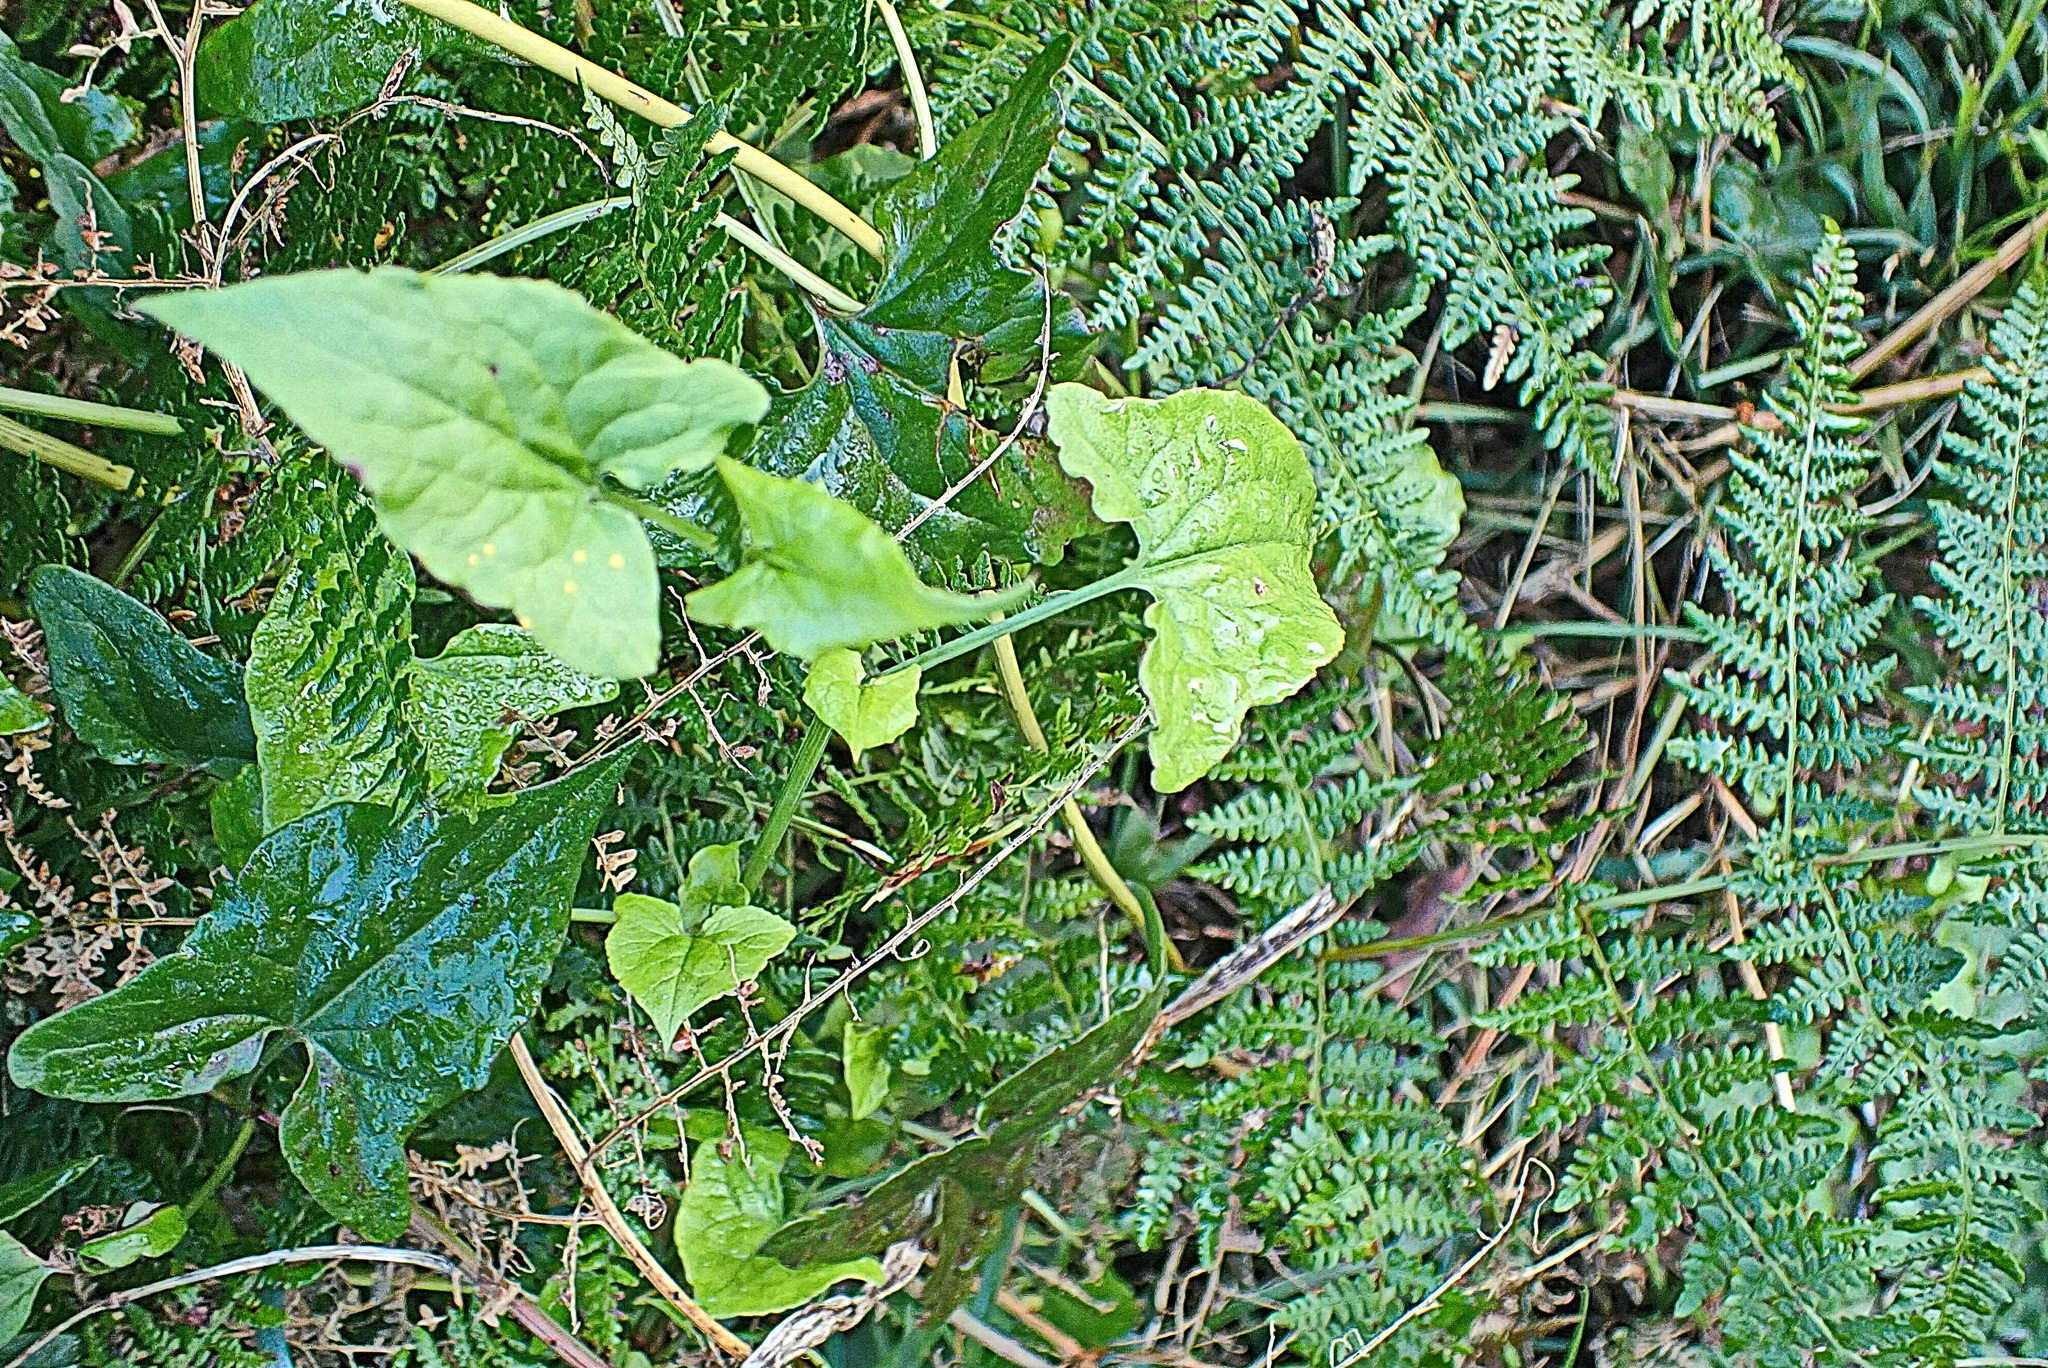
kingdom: Plantae
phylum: Tracheophyta
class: Magnoliopsida
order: Caryophyllales
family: Polygonaceae
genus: Rumex
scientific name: Rumex sagittatus
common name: Climbing dock
